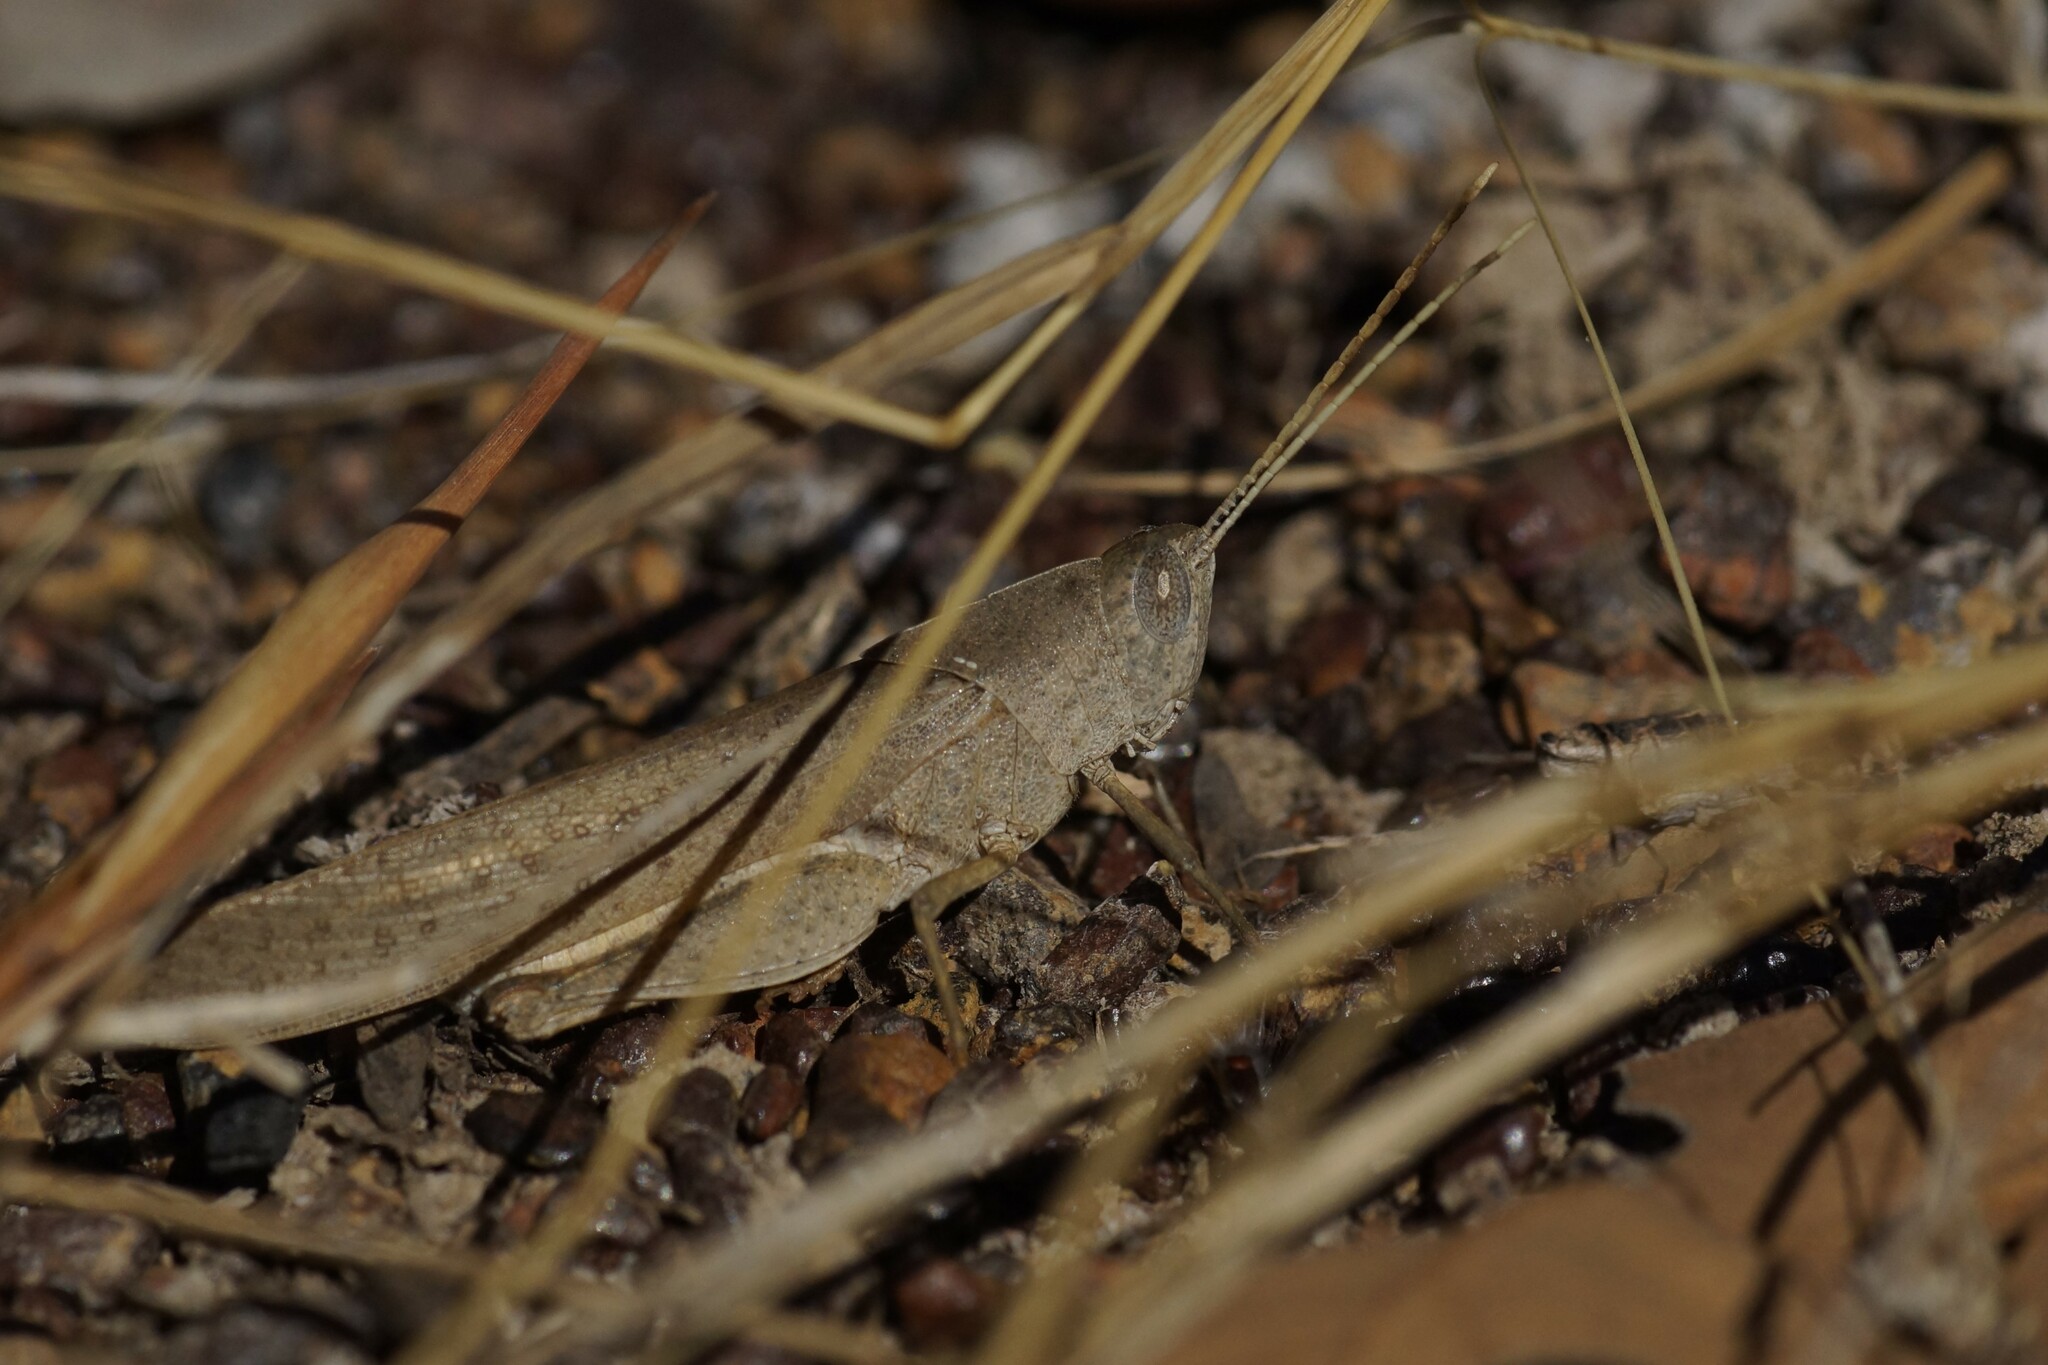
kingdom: Animalia
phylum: Arthropoda
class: Insecta
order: Orthoptera
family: Acrididae
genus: Goniaea
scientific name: Goniaea vocans
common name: Slender gumleaf grasshopper
